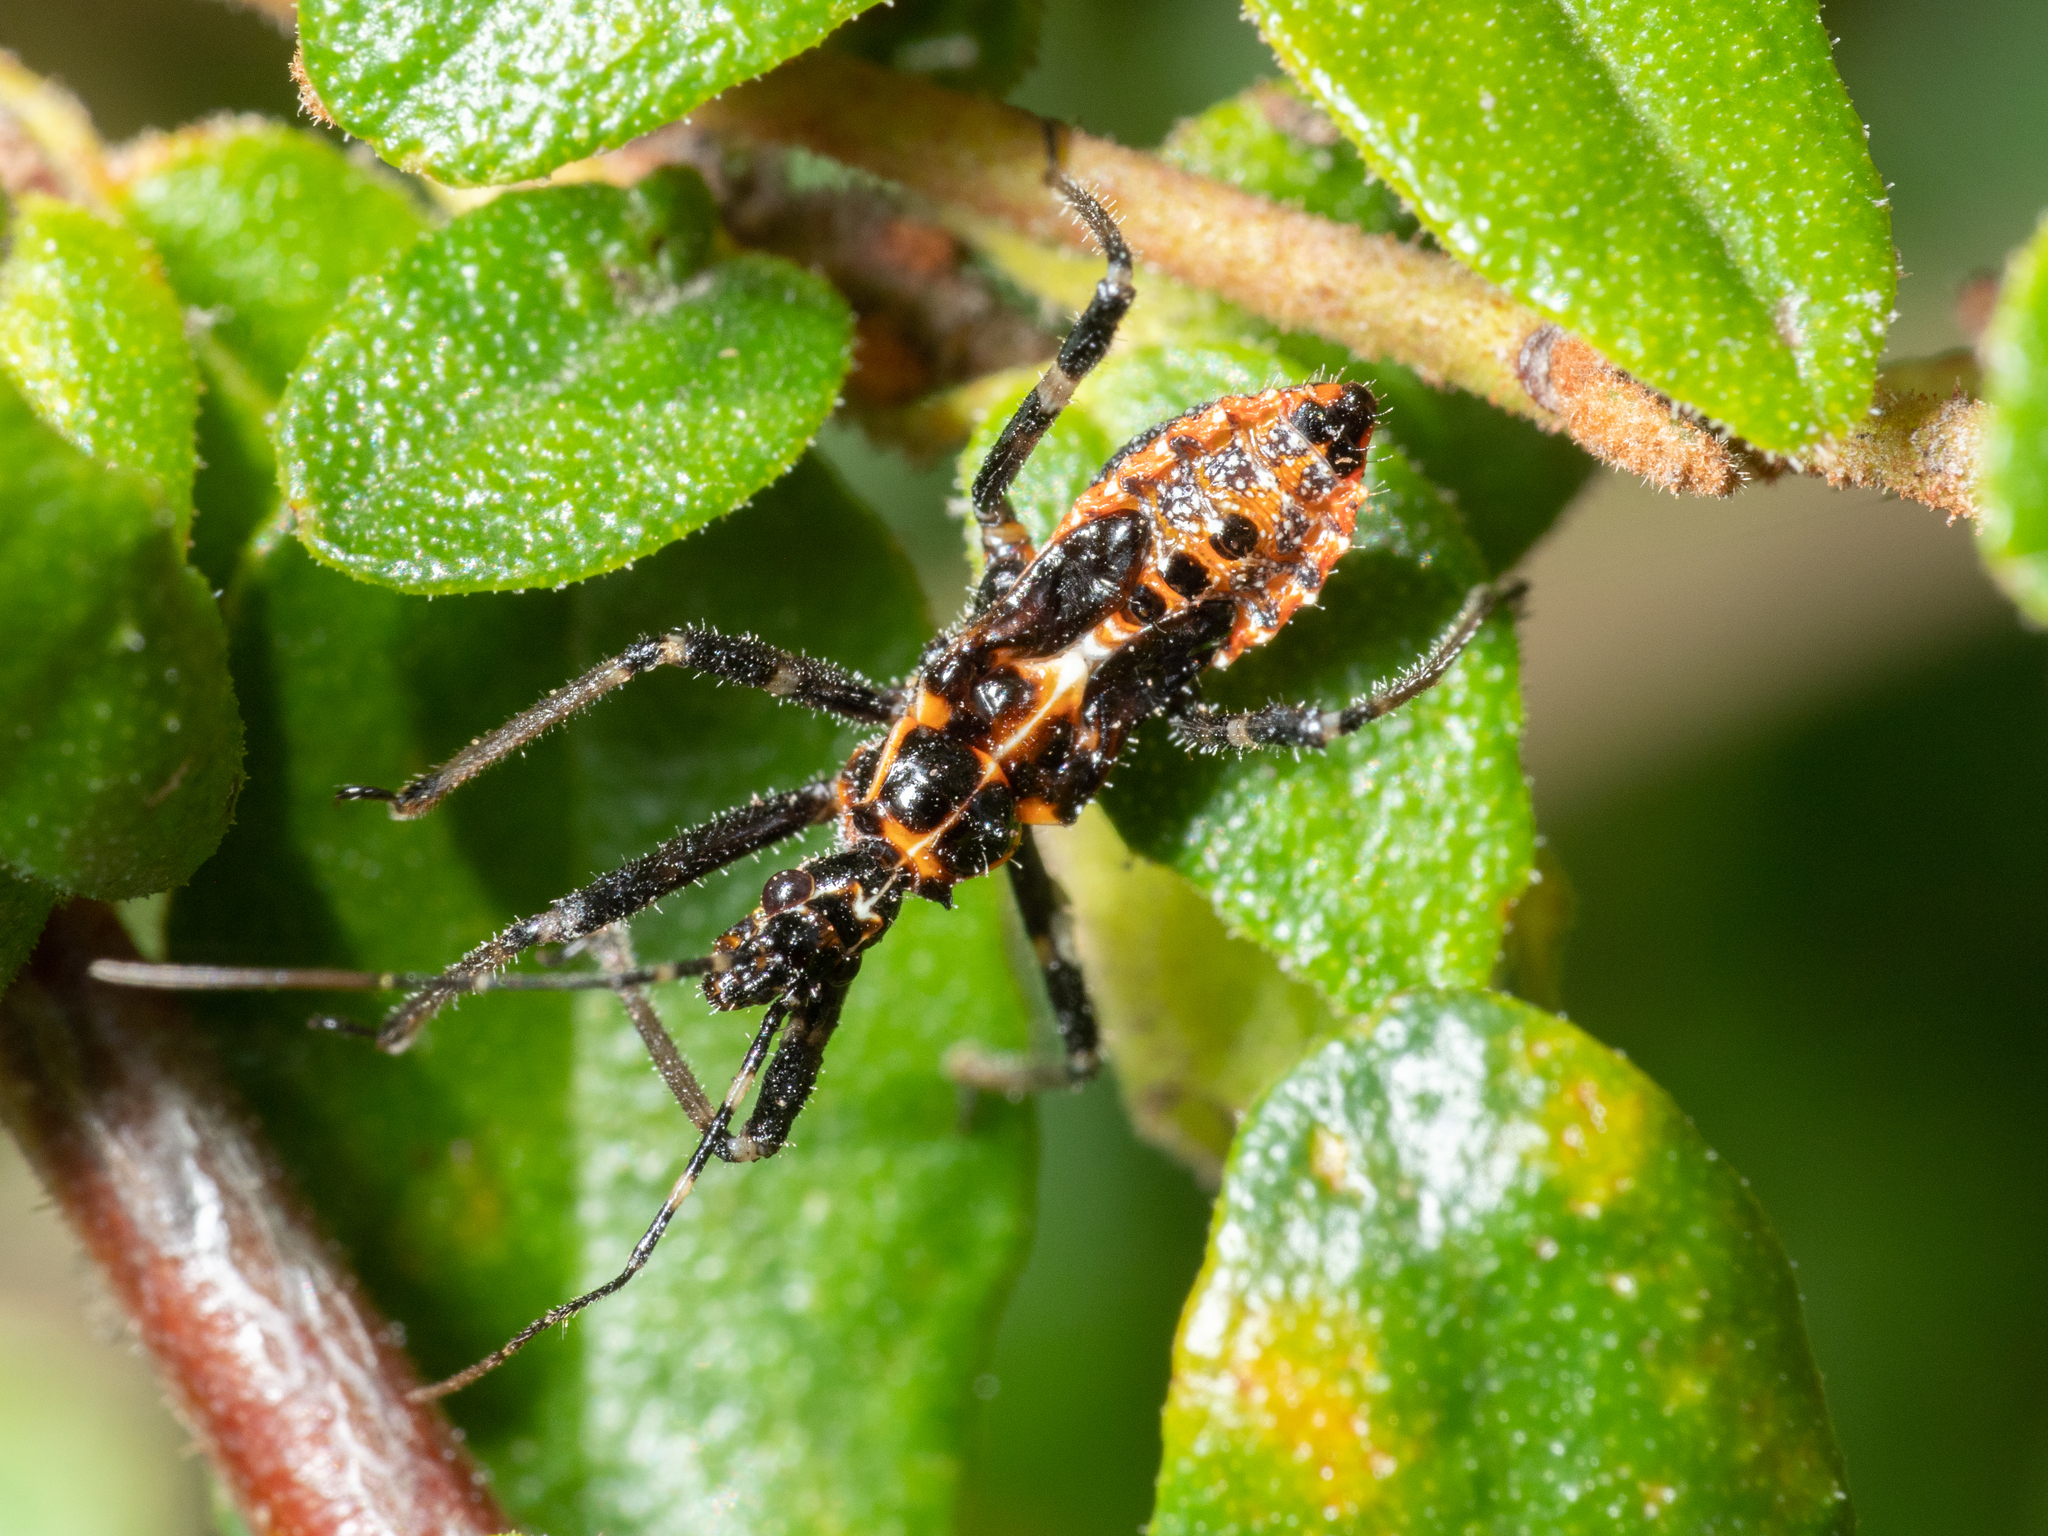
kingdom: Animalia
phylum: Arthropoda
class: Insecta
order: Hemiptera
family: Reduviidae
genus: Gminatus
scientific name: Gminatus australis
